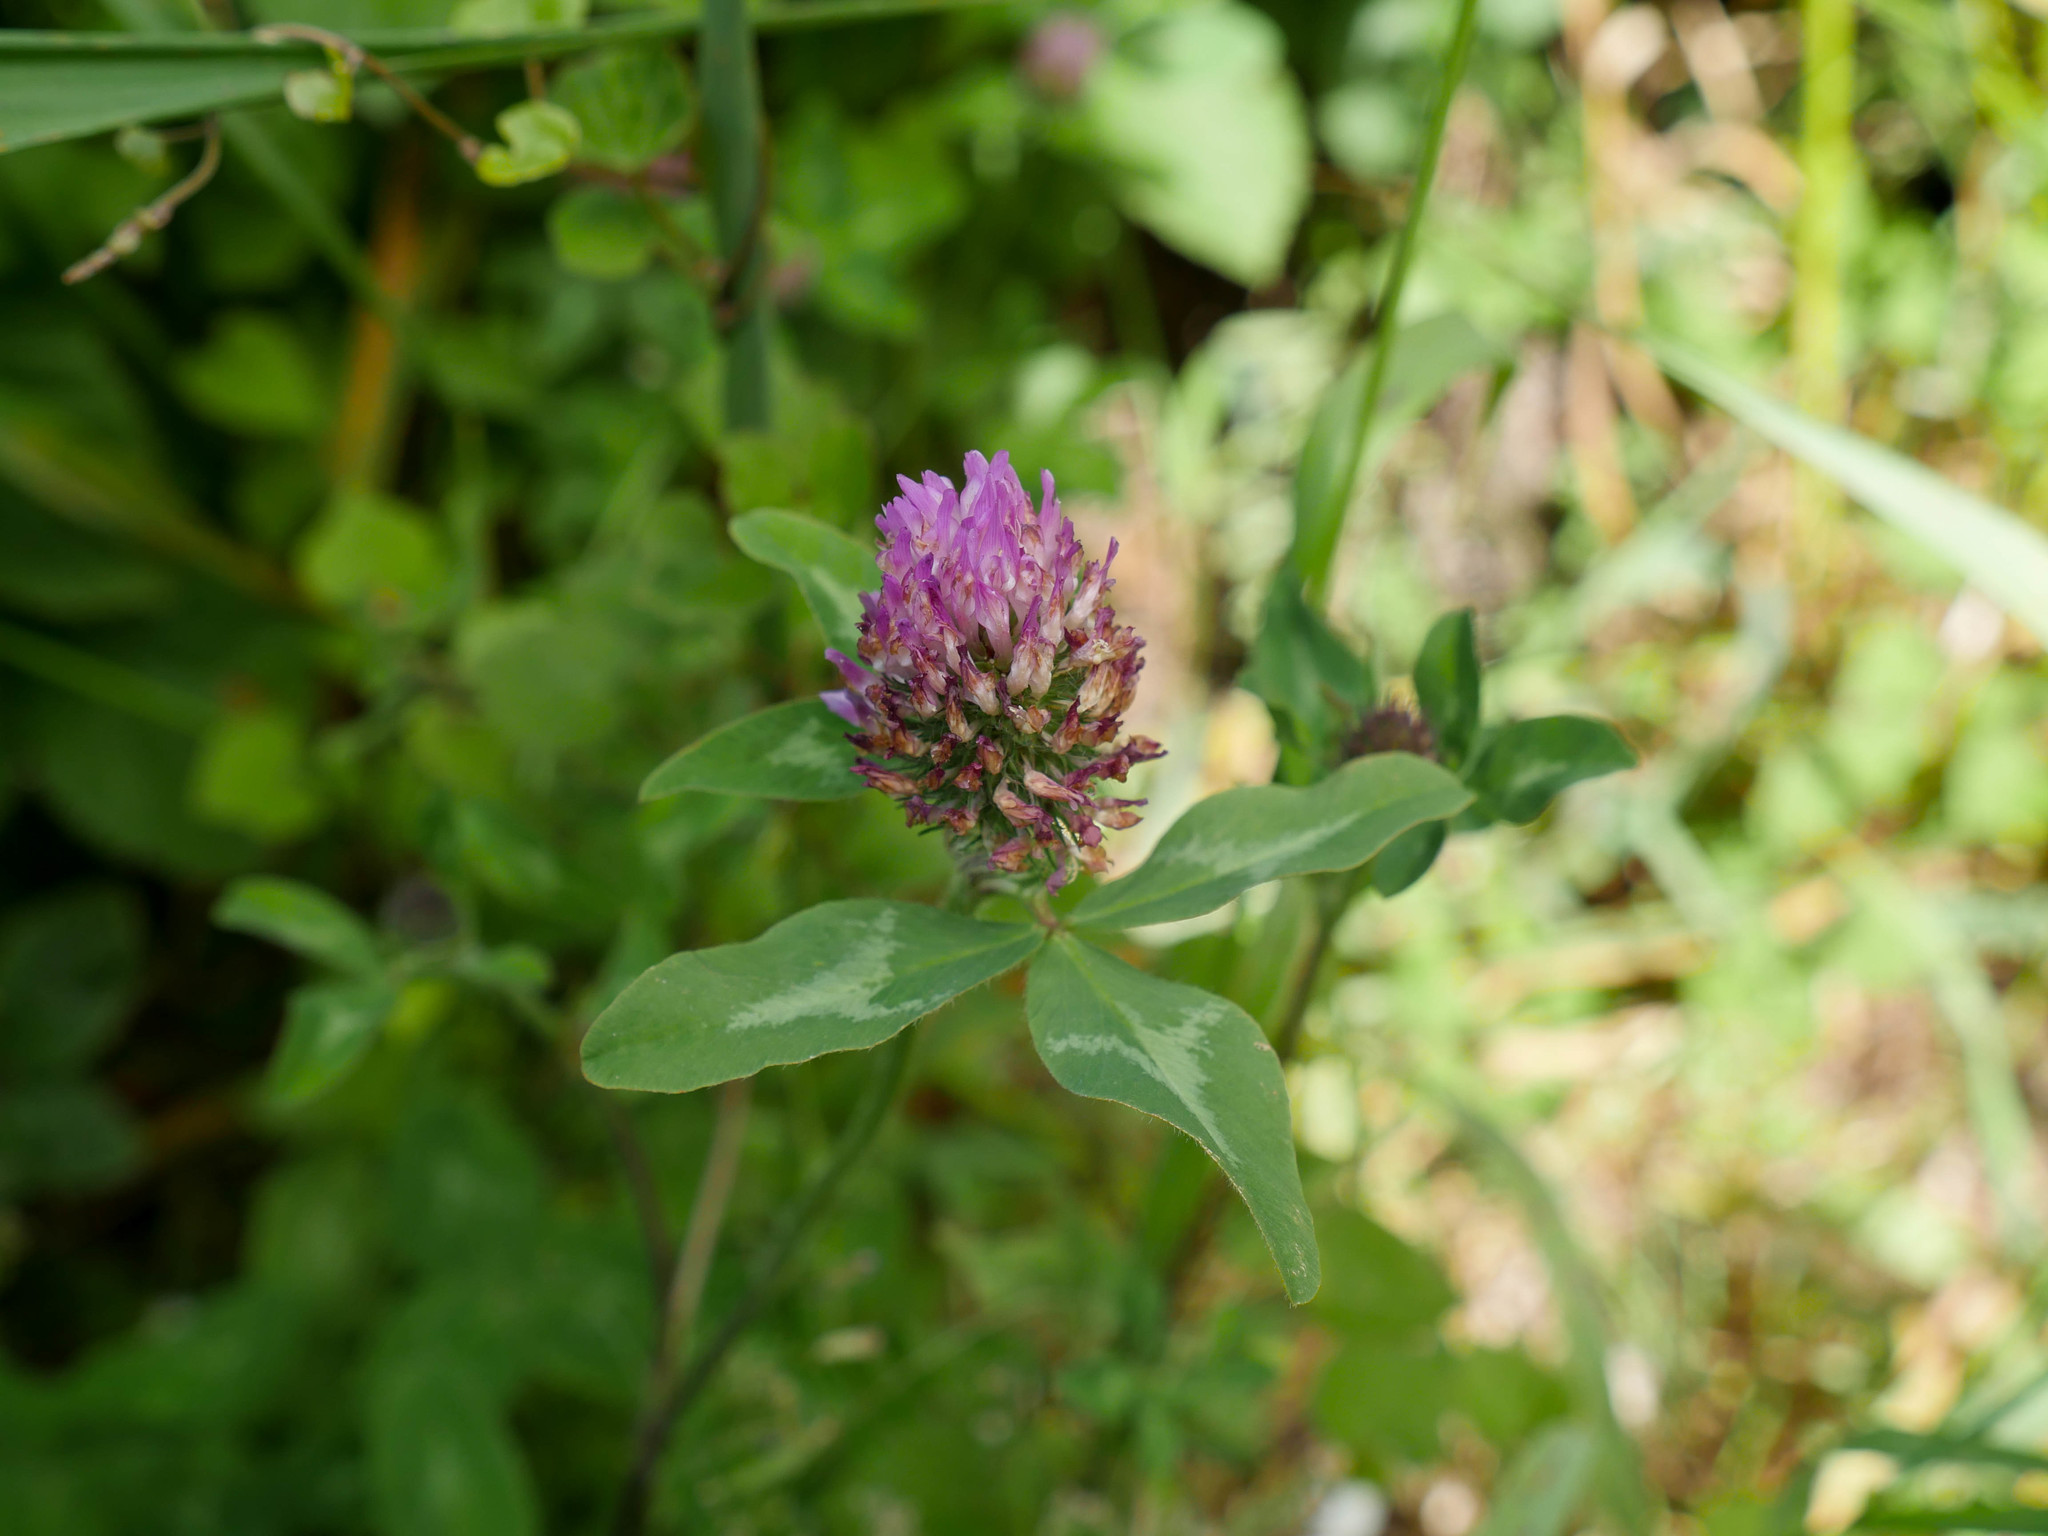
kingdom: Plantae
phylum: Tracheophyta
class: Magnoliopsida
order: Fabales
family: Fabaceae
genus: Trifolium
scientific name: Trifolium pratense
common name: Red clover
